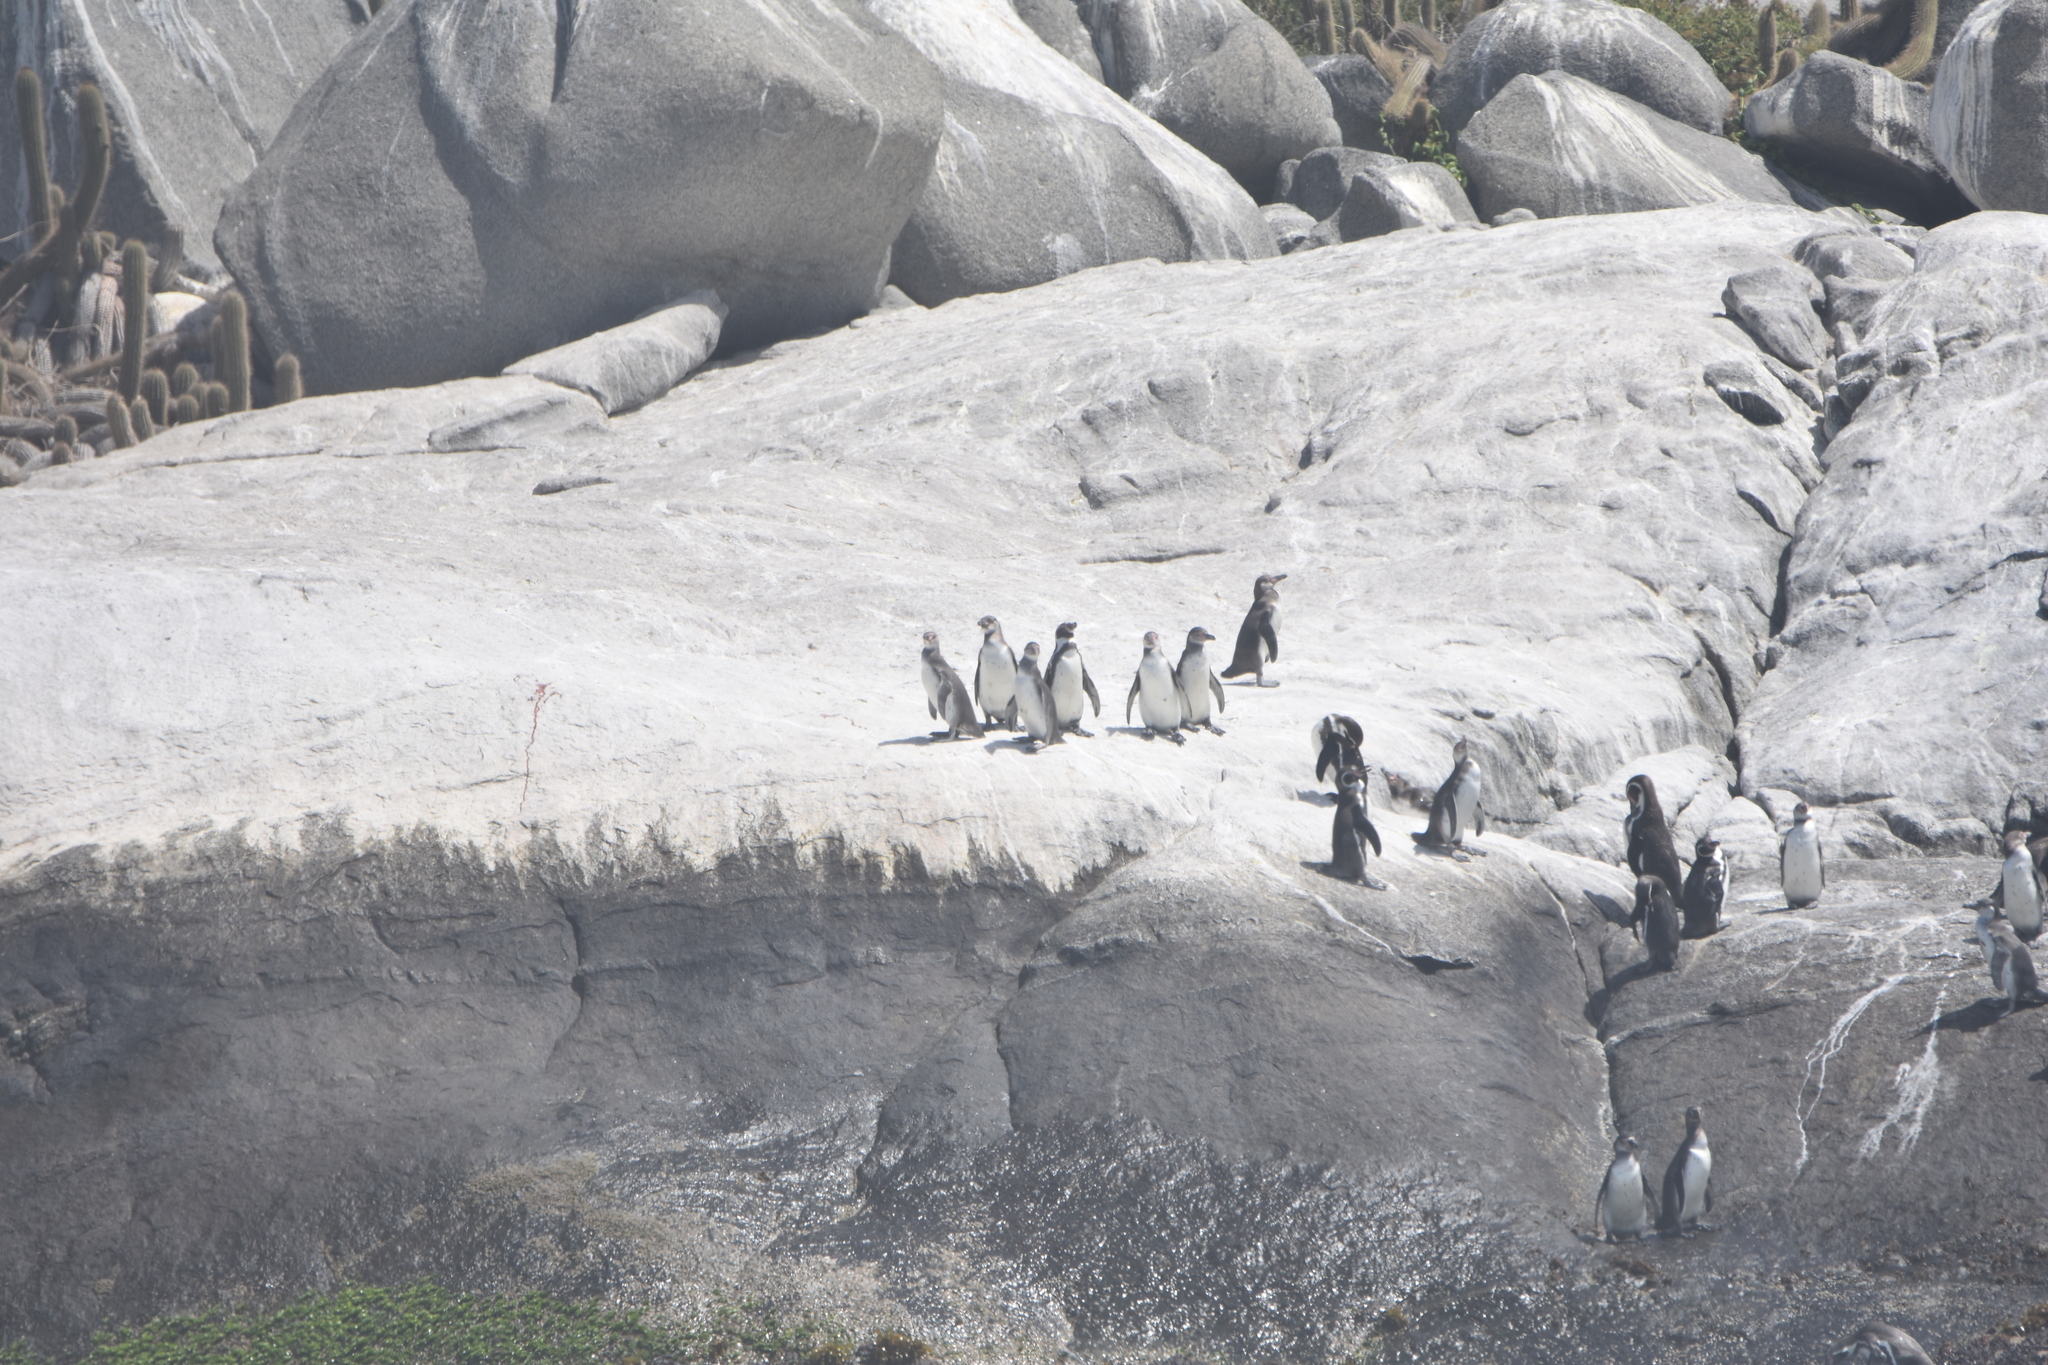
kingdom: Animalia
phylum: Chordata
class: Aves
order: Sphenisciformes
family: Spheniscidae
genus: Spheniscus
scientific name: Spheniscus humboldti
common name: Humboldt penguin
